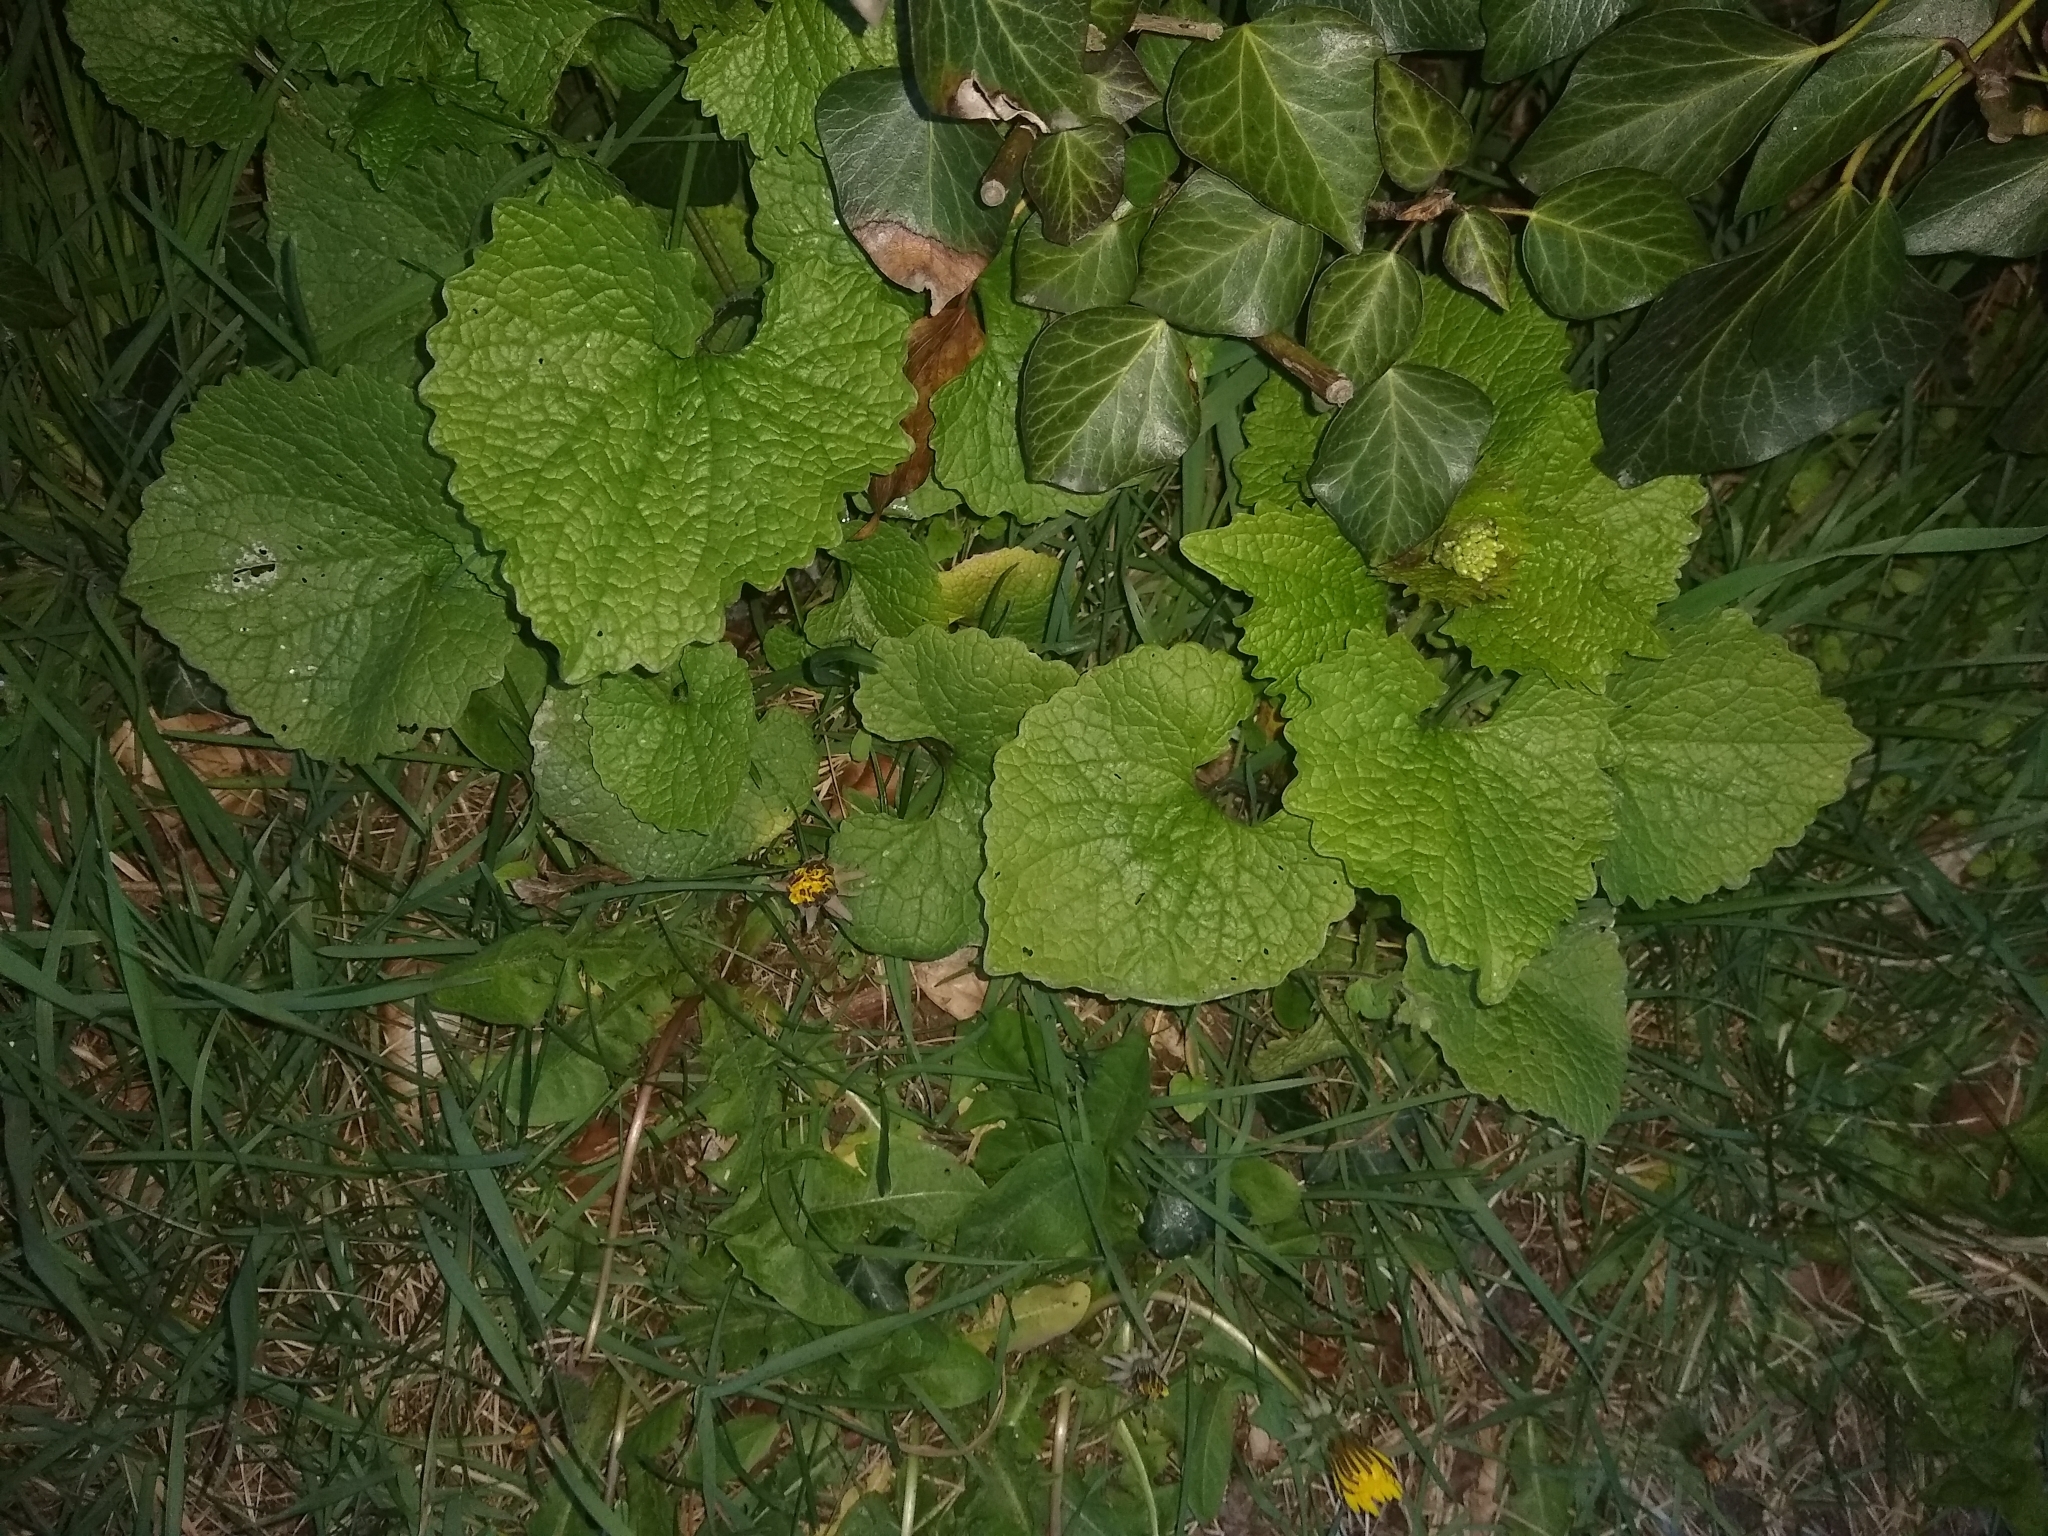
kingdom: Plantae
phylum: Tracheophyta
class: Magnoliopsida
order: Brassicales
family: Brassicaceae
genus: Alliaria
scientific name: Alliaria petiolata
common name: Garlic mustard
